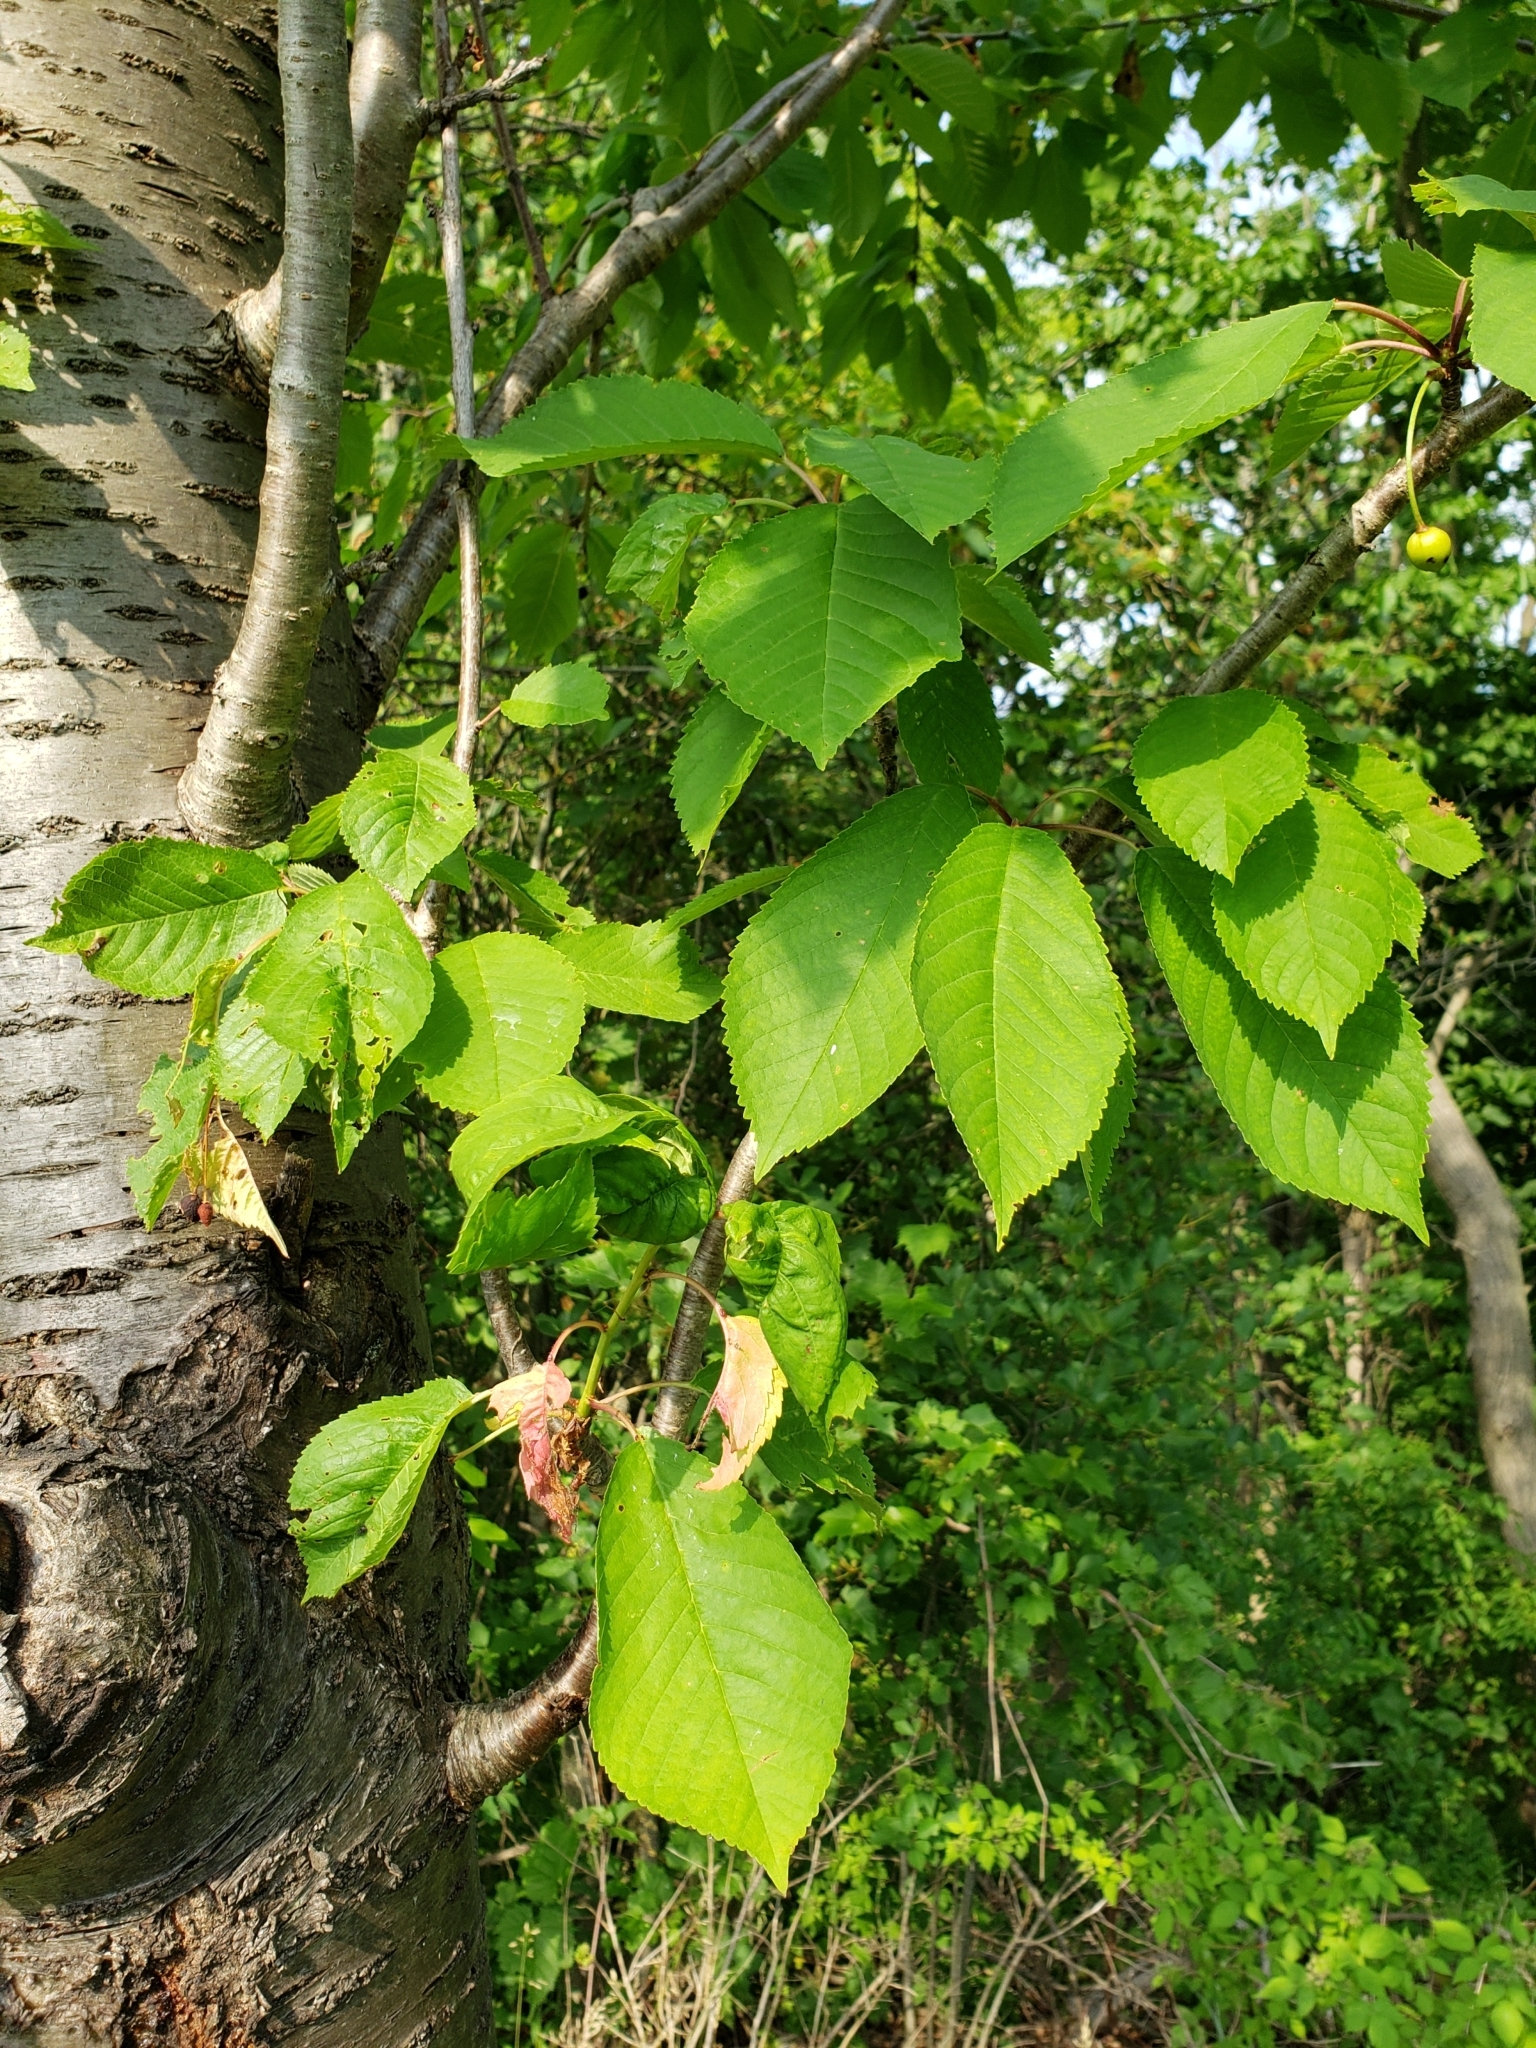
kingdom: Plantae
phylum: Tracheophyta
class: Magnoliopsida
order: Rosales
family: Rosaceae
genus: Prunus
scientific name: Prunus avium
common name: Sweet cherry
